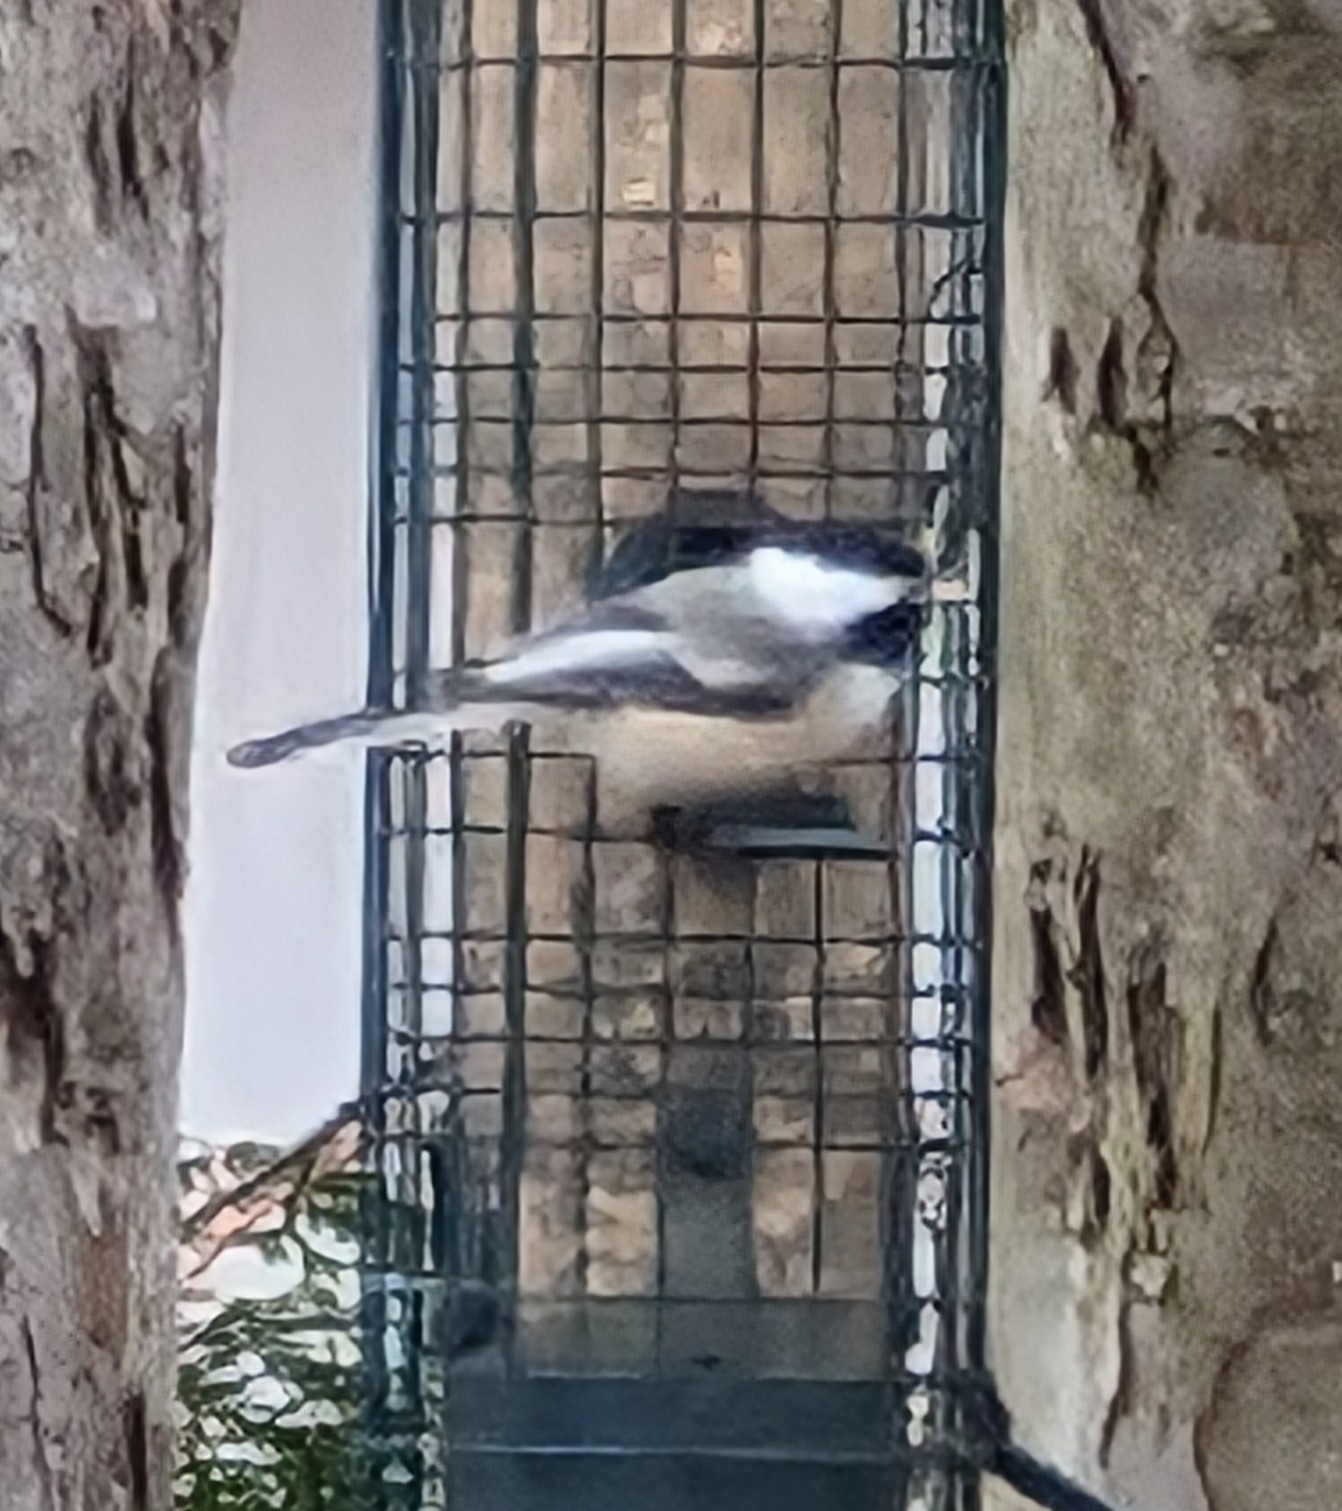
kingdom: Animalia
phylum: Chordata
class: Aves
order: Passeriformes
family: Paridae
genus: Poecile
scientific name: Poecile atricapillus
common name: Black-capped chickadee
